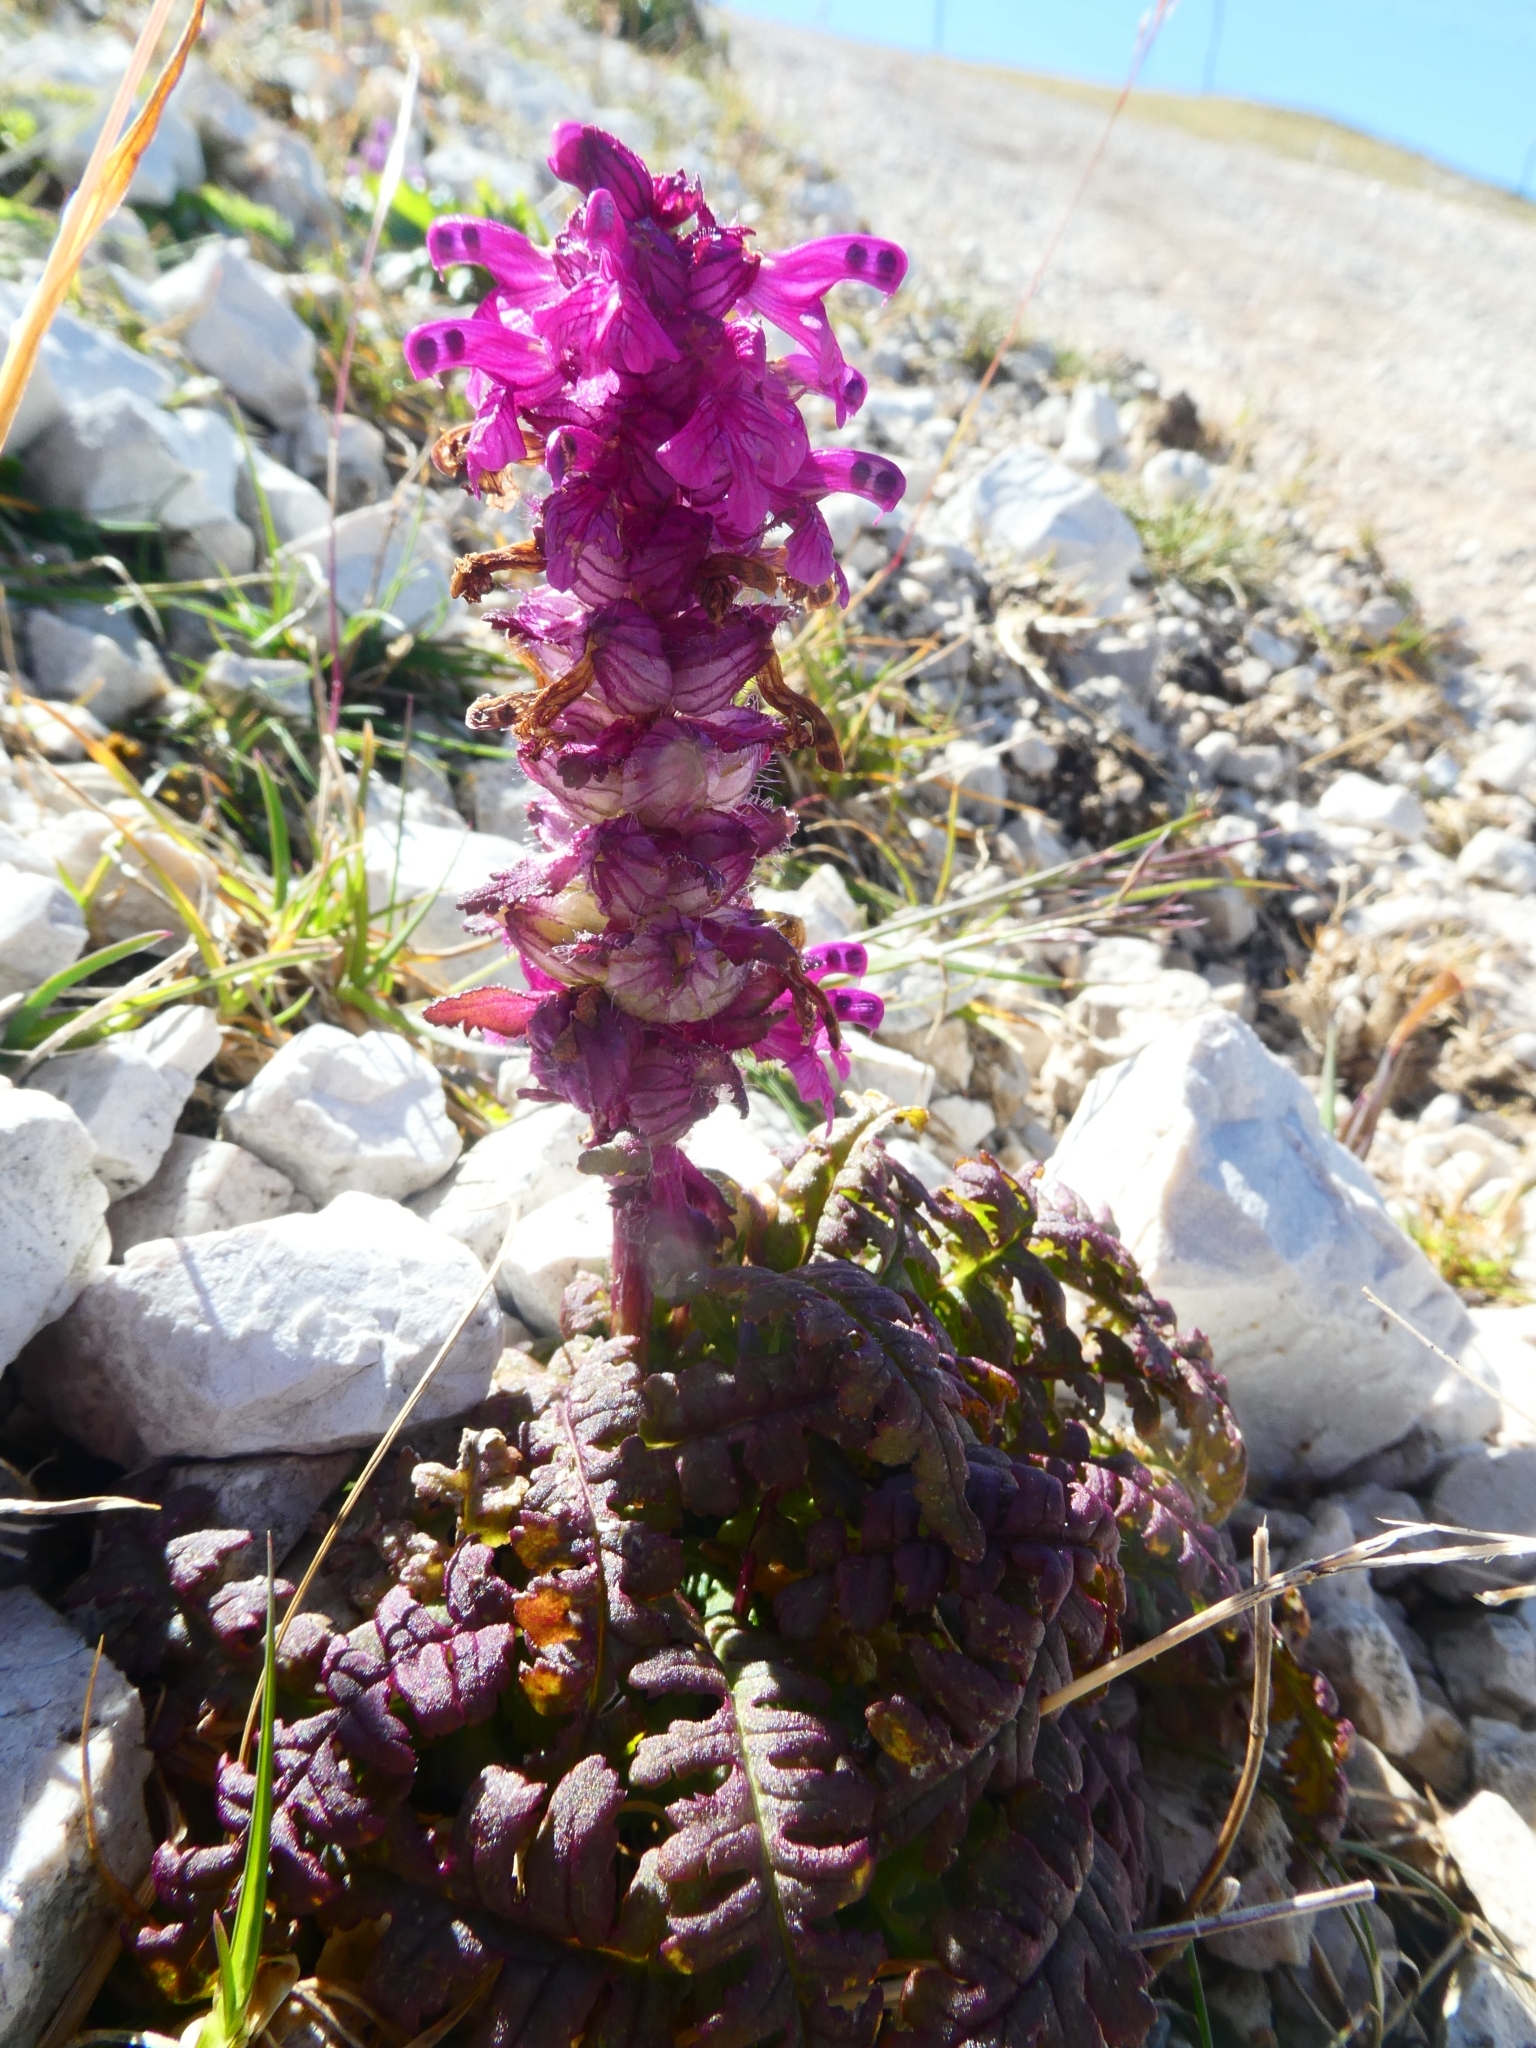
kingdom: Plantae
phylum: Tracheophyta
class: Magnoliopsida
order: Lamiales
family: Orobanchaceae
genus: Pedicularis
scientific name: Pedicularis verticillata
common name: Whorled lousewort
